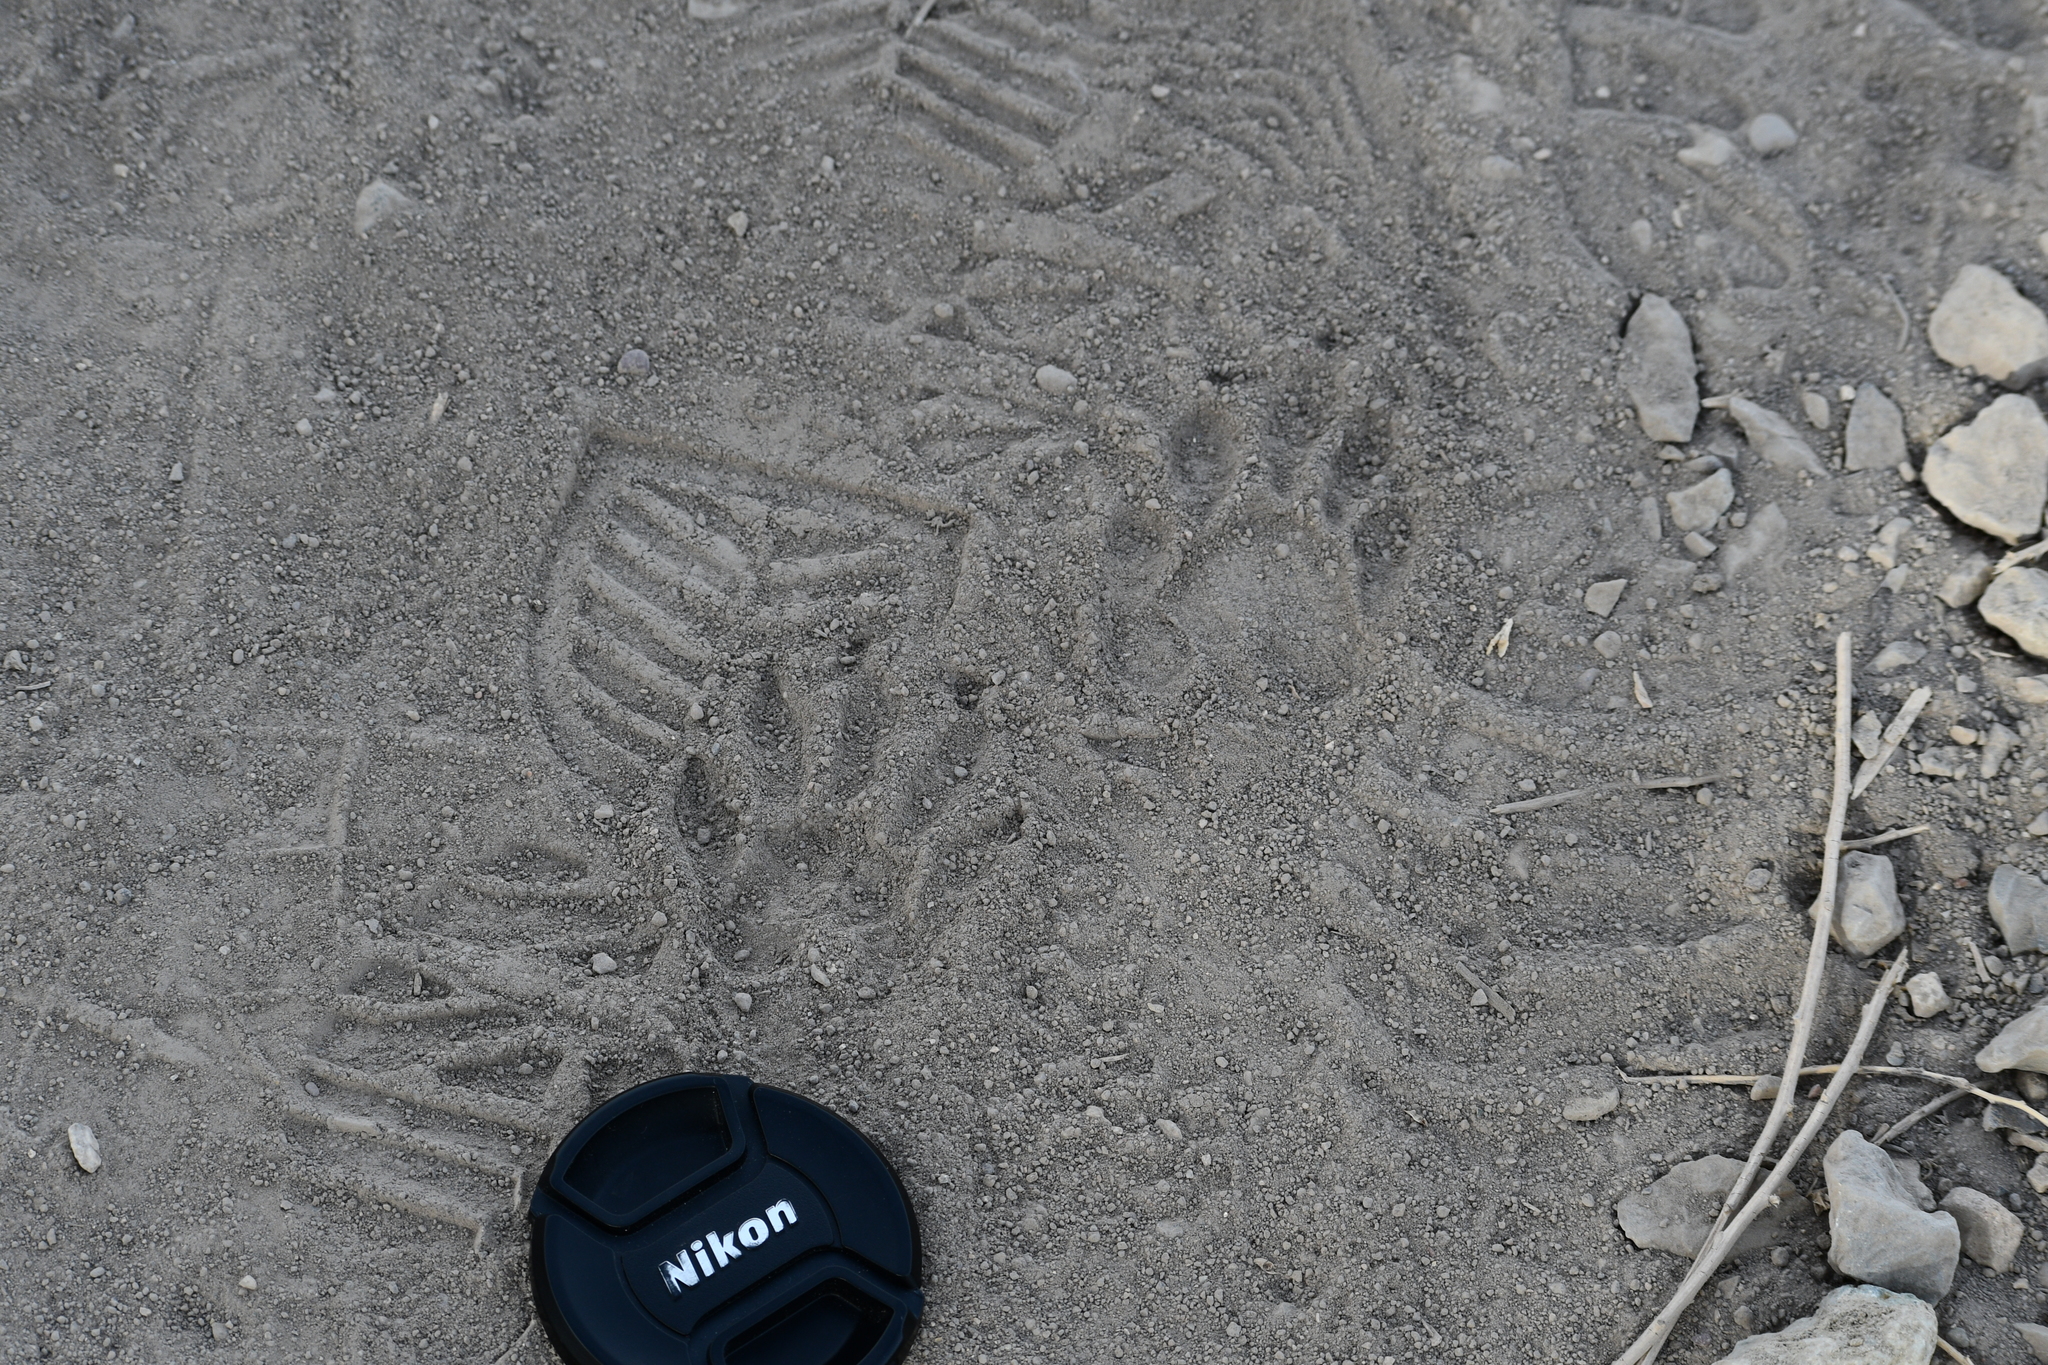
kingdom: Animalia
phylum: Chordata
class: Mammalia
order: Carnivora
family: Procyonidae
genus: Procyon
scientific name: Procyon lotor
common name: Raccoon
